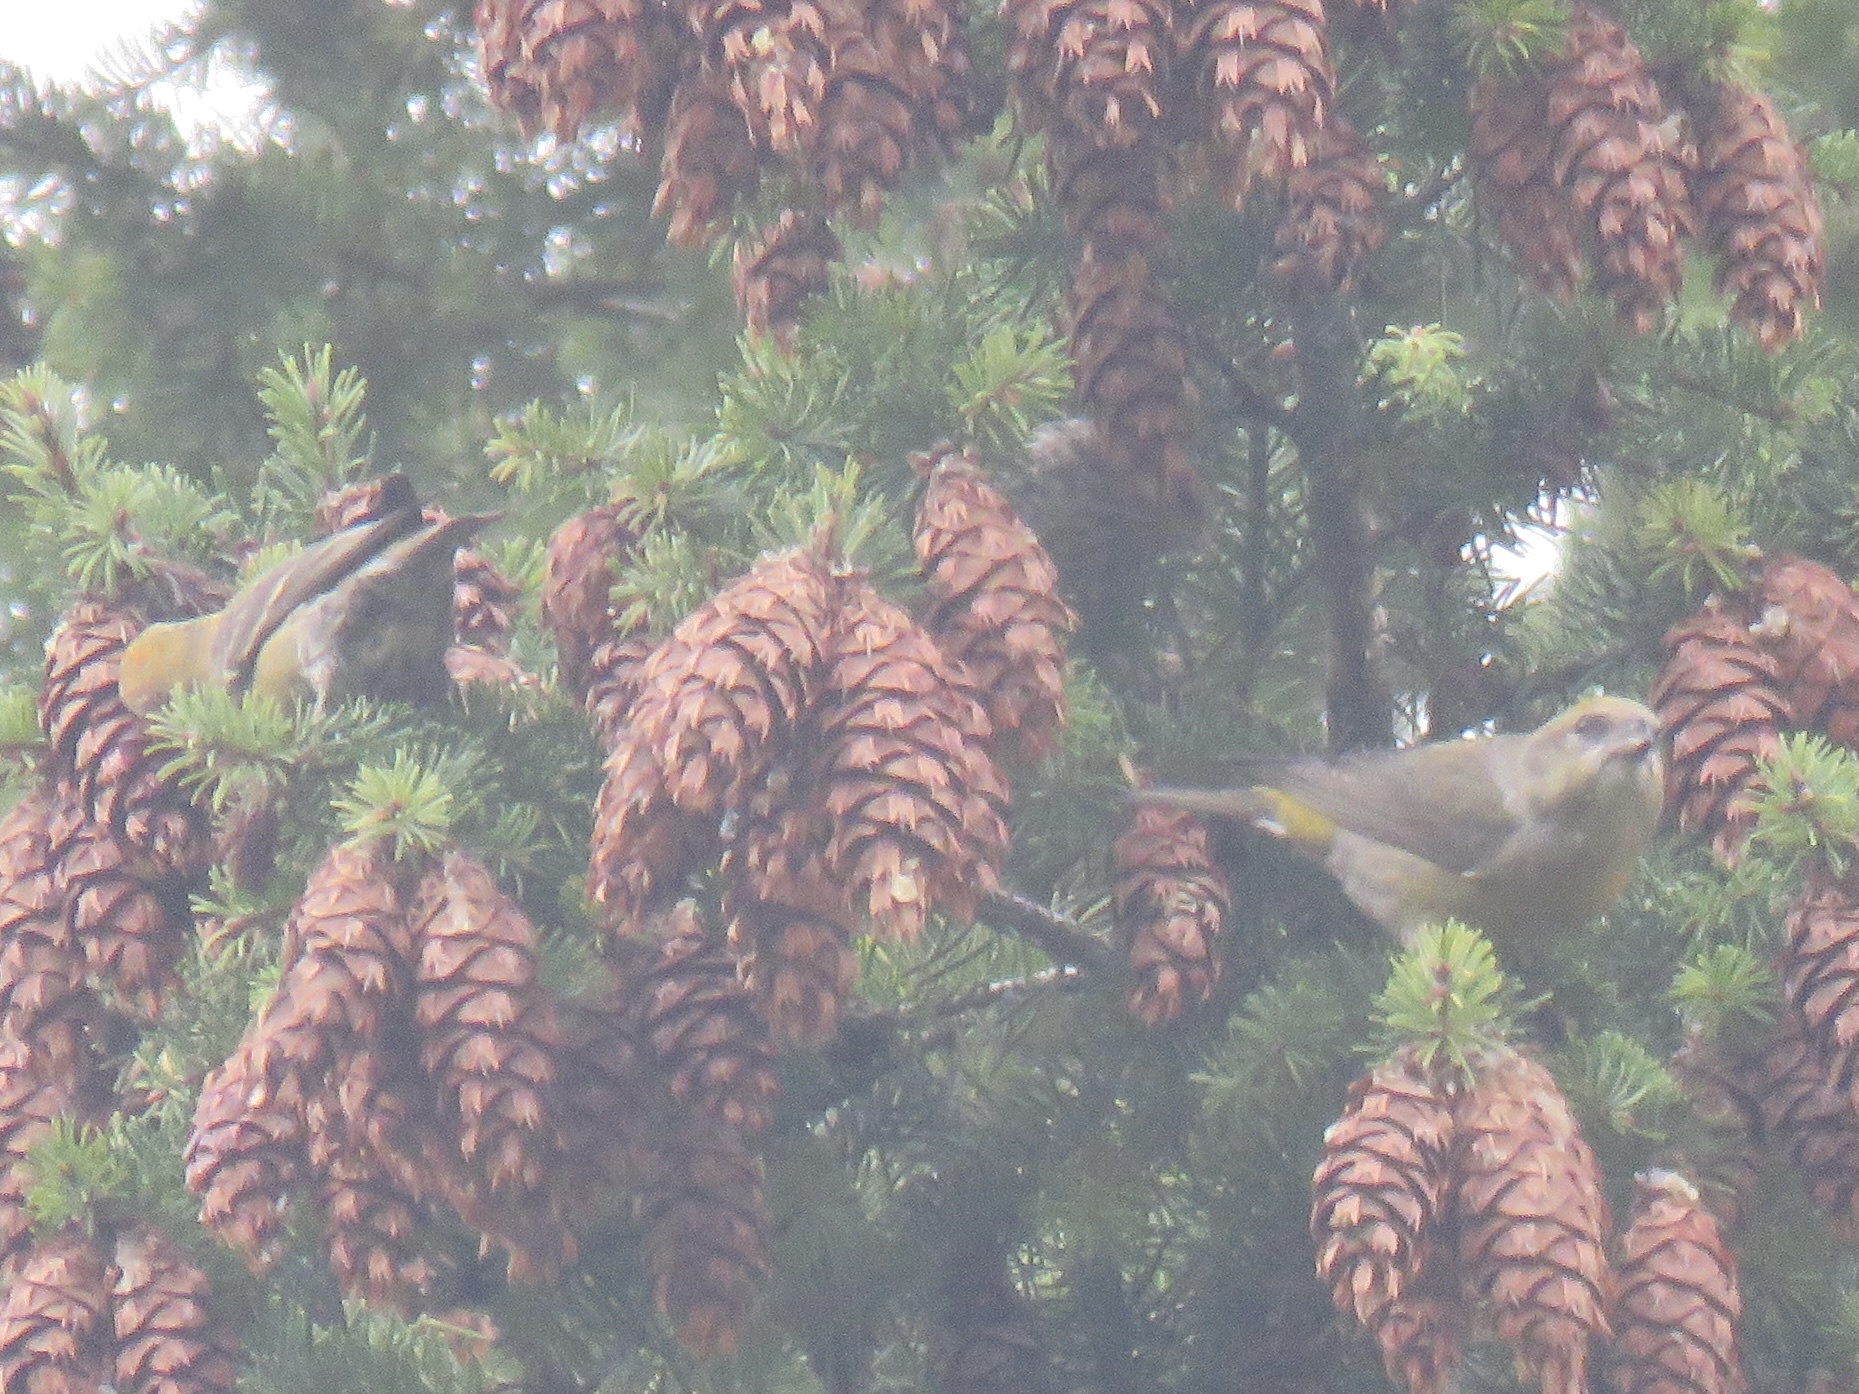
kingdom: Animalia
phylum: Chordata
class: Aves
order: Passeriformes
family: Fringillidae
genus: Loxia
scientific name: Loxia curvirostra
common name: Red crossbill
